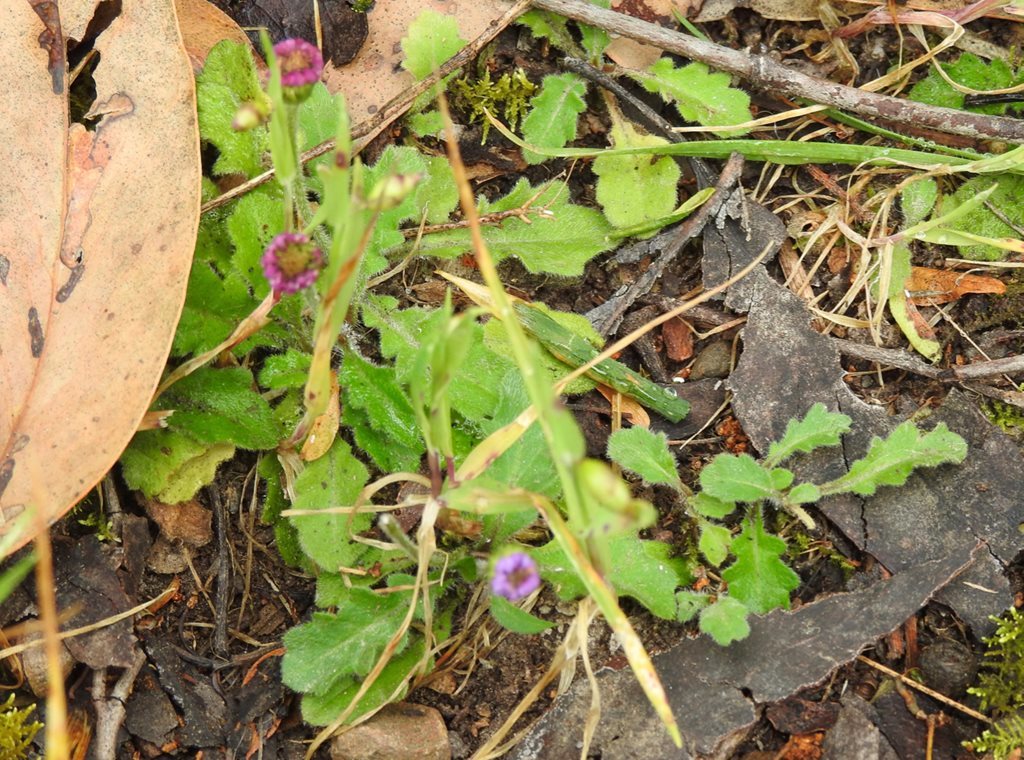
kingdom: Plantae
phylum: Tracheophyta
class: Magnoliopsida
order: Asterales
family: Asteraceae
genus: Lagenophora
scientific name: Lagenophora stipitata
